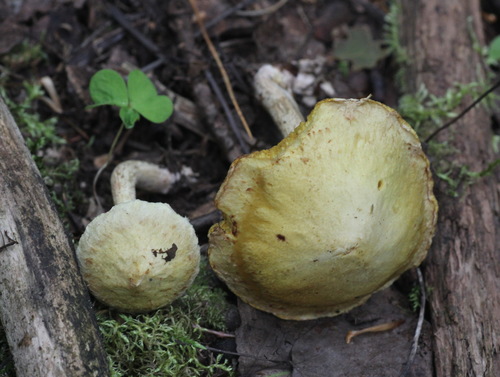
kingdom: Fungi
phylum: Basidiomycota
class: Agaricomycetes
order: Boletales
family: Suillaceae
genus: Suillus
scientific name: Suillus americanus
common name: Chicken fat mushroom
